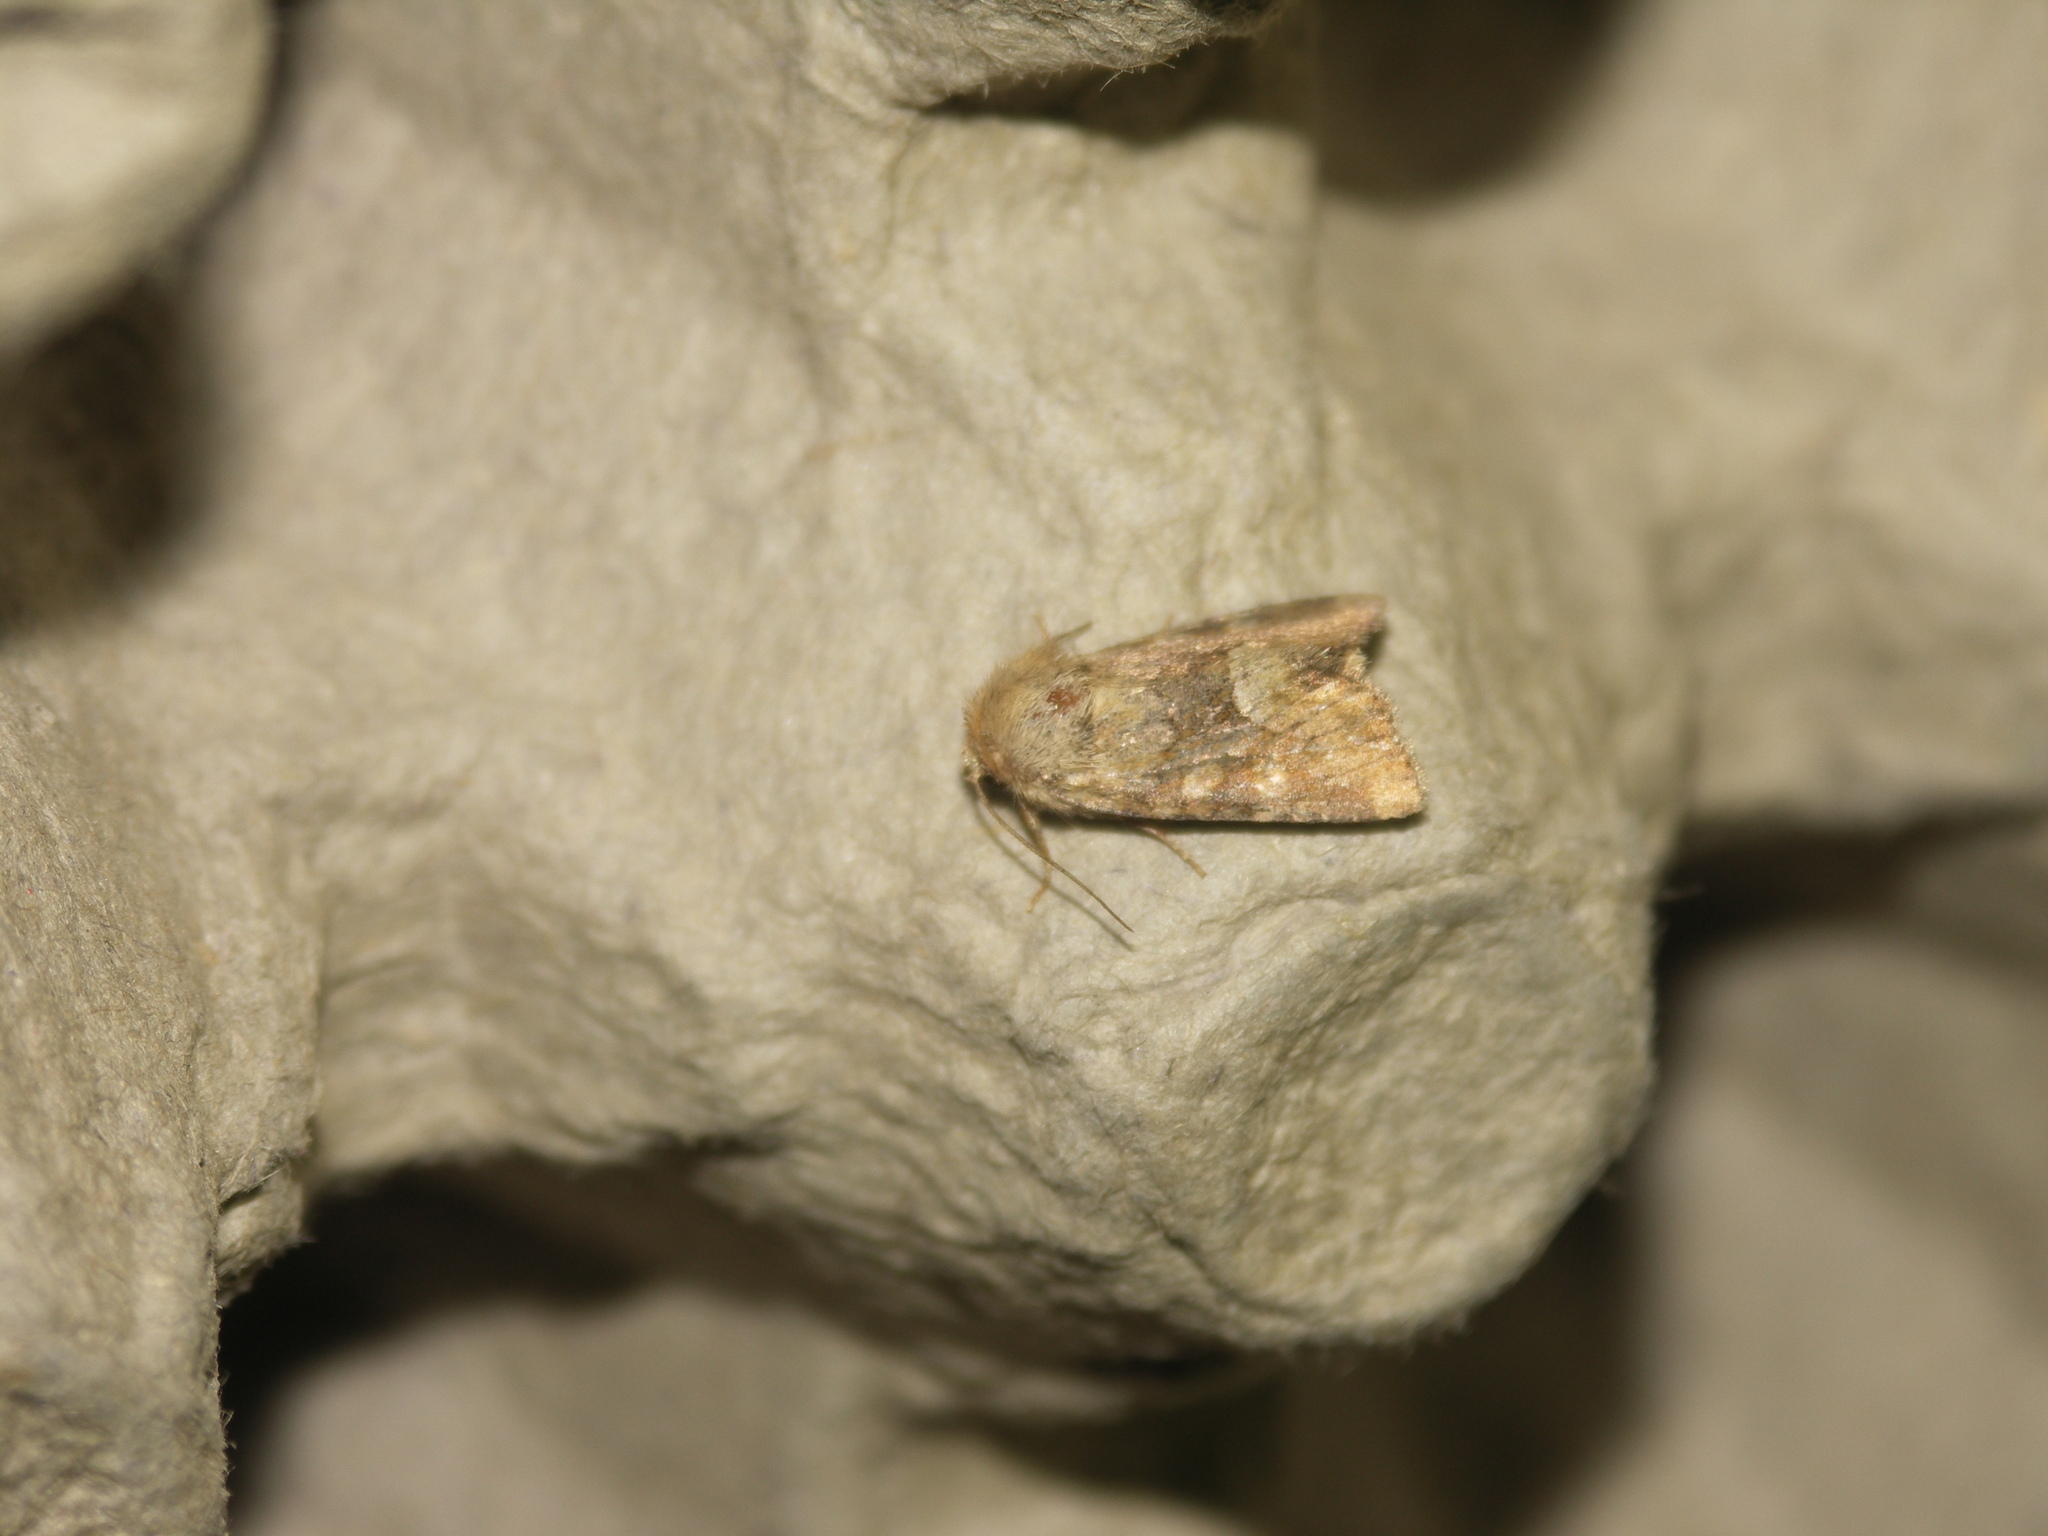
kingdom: Animalia
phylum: Arthropoda
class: Insecta
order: Lepidoptera
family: Noctuidae
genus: Oligia
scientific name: Oligia fasciuncula
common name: Middle-barred minor
